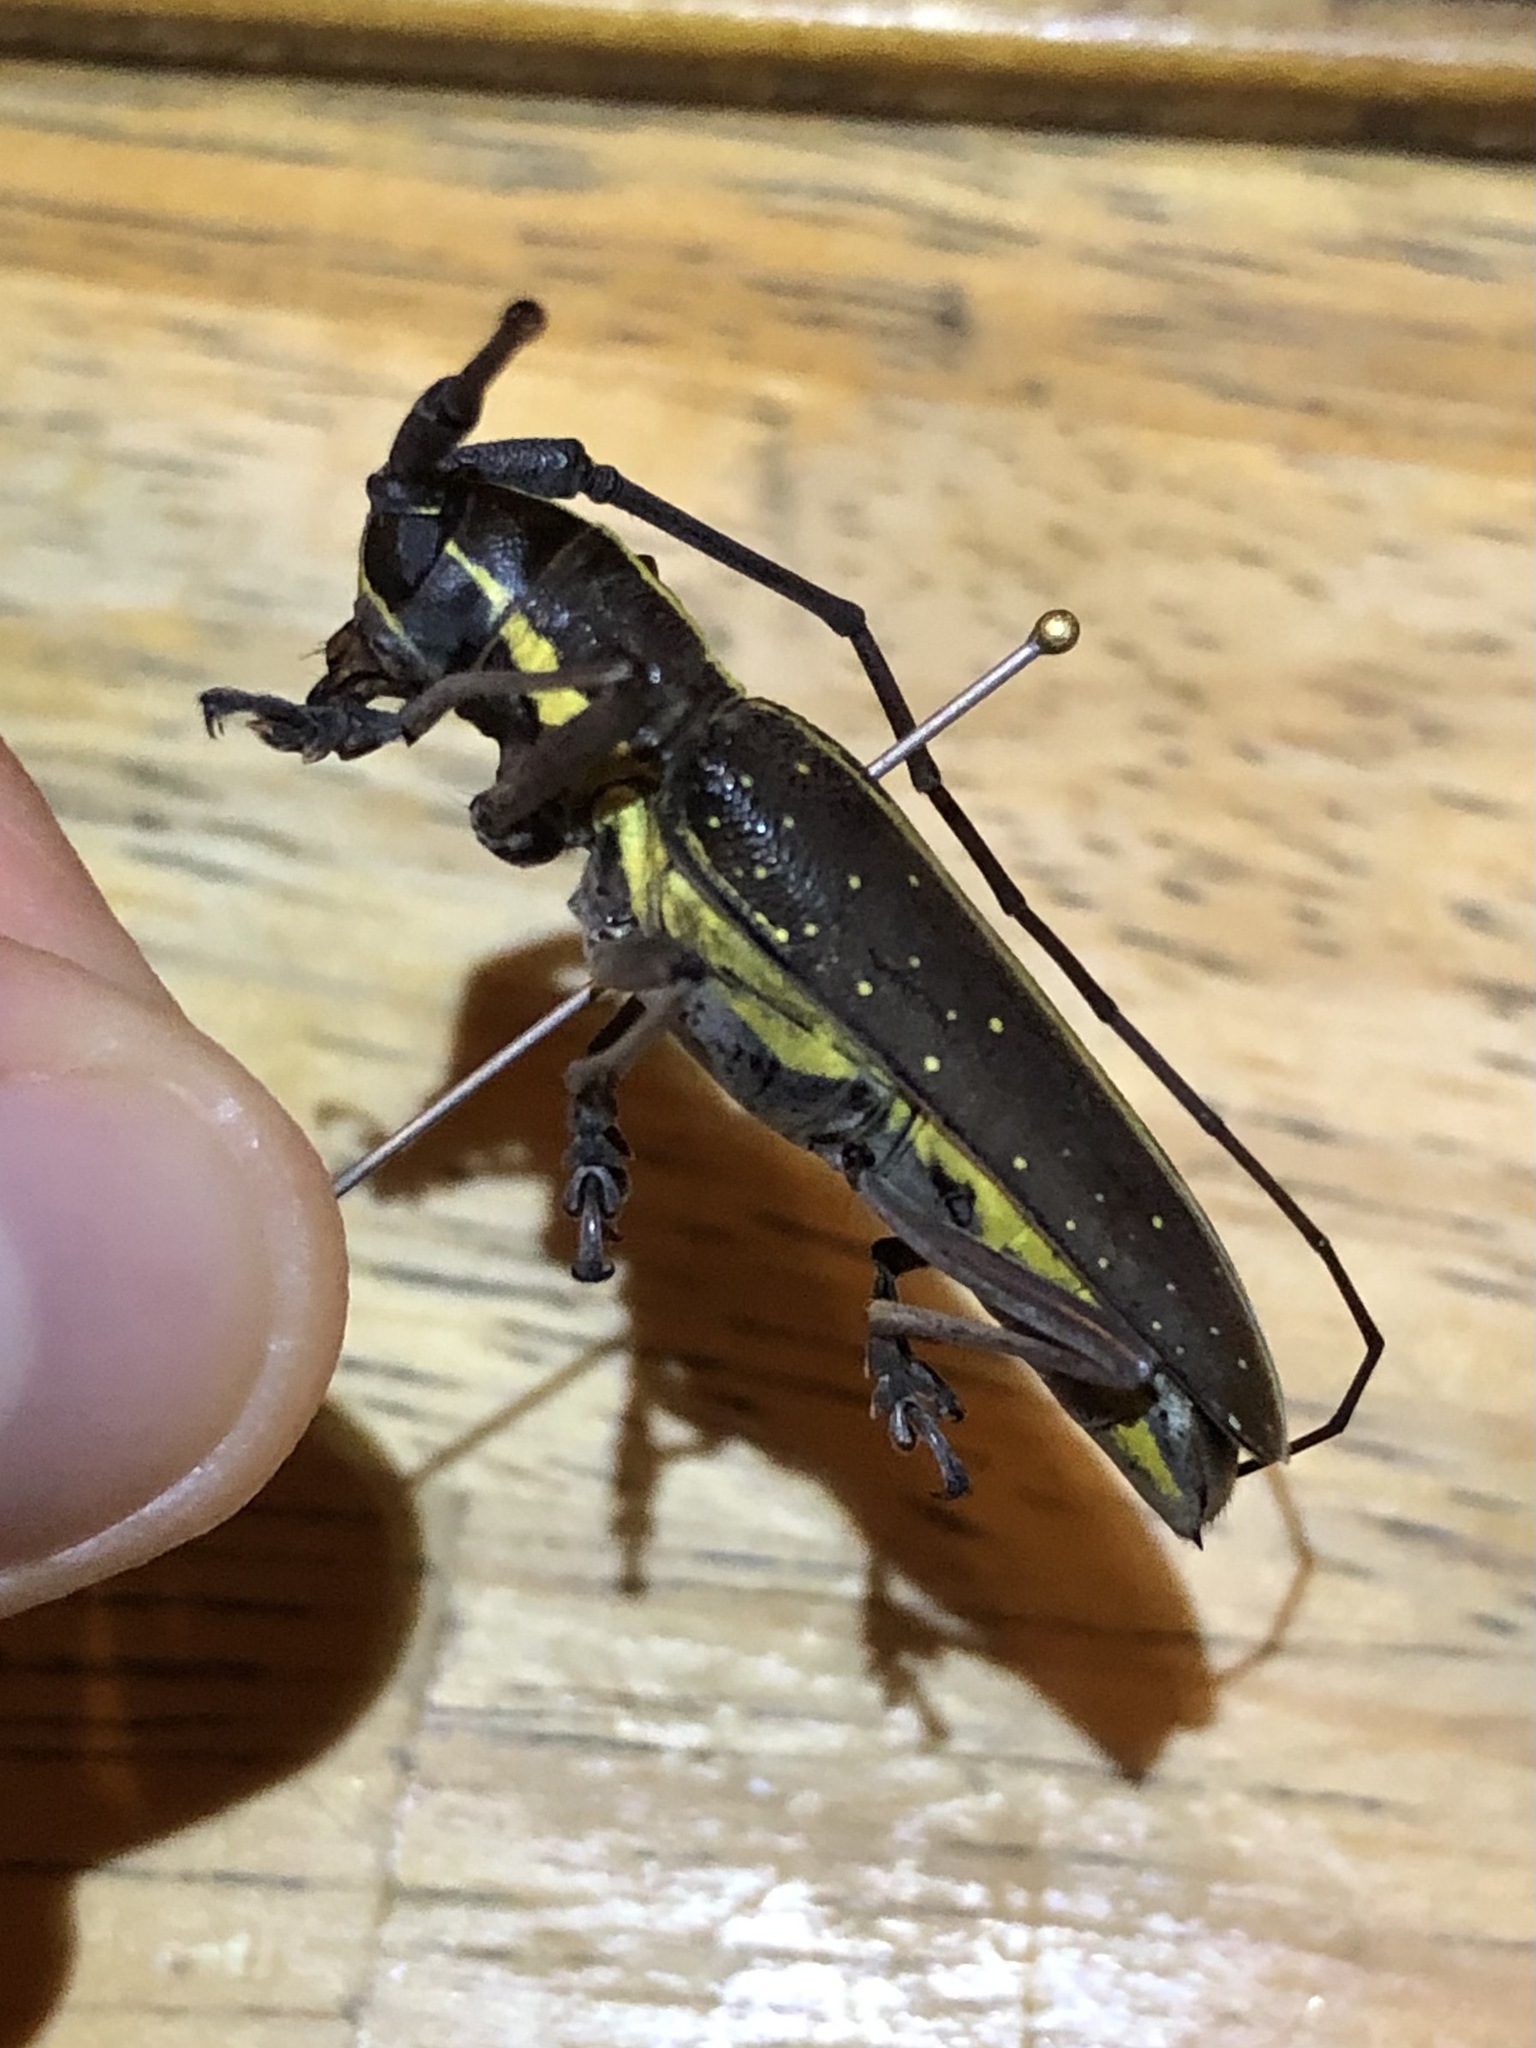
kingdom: Animalia
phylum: Arthropoda
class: Insecta
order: Coleoptera
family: Cerambycidae
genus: Taeniotes
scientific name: Taeniotes scalatus
